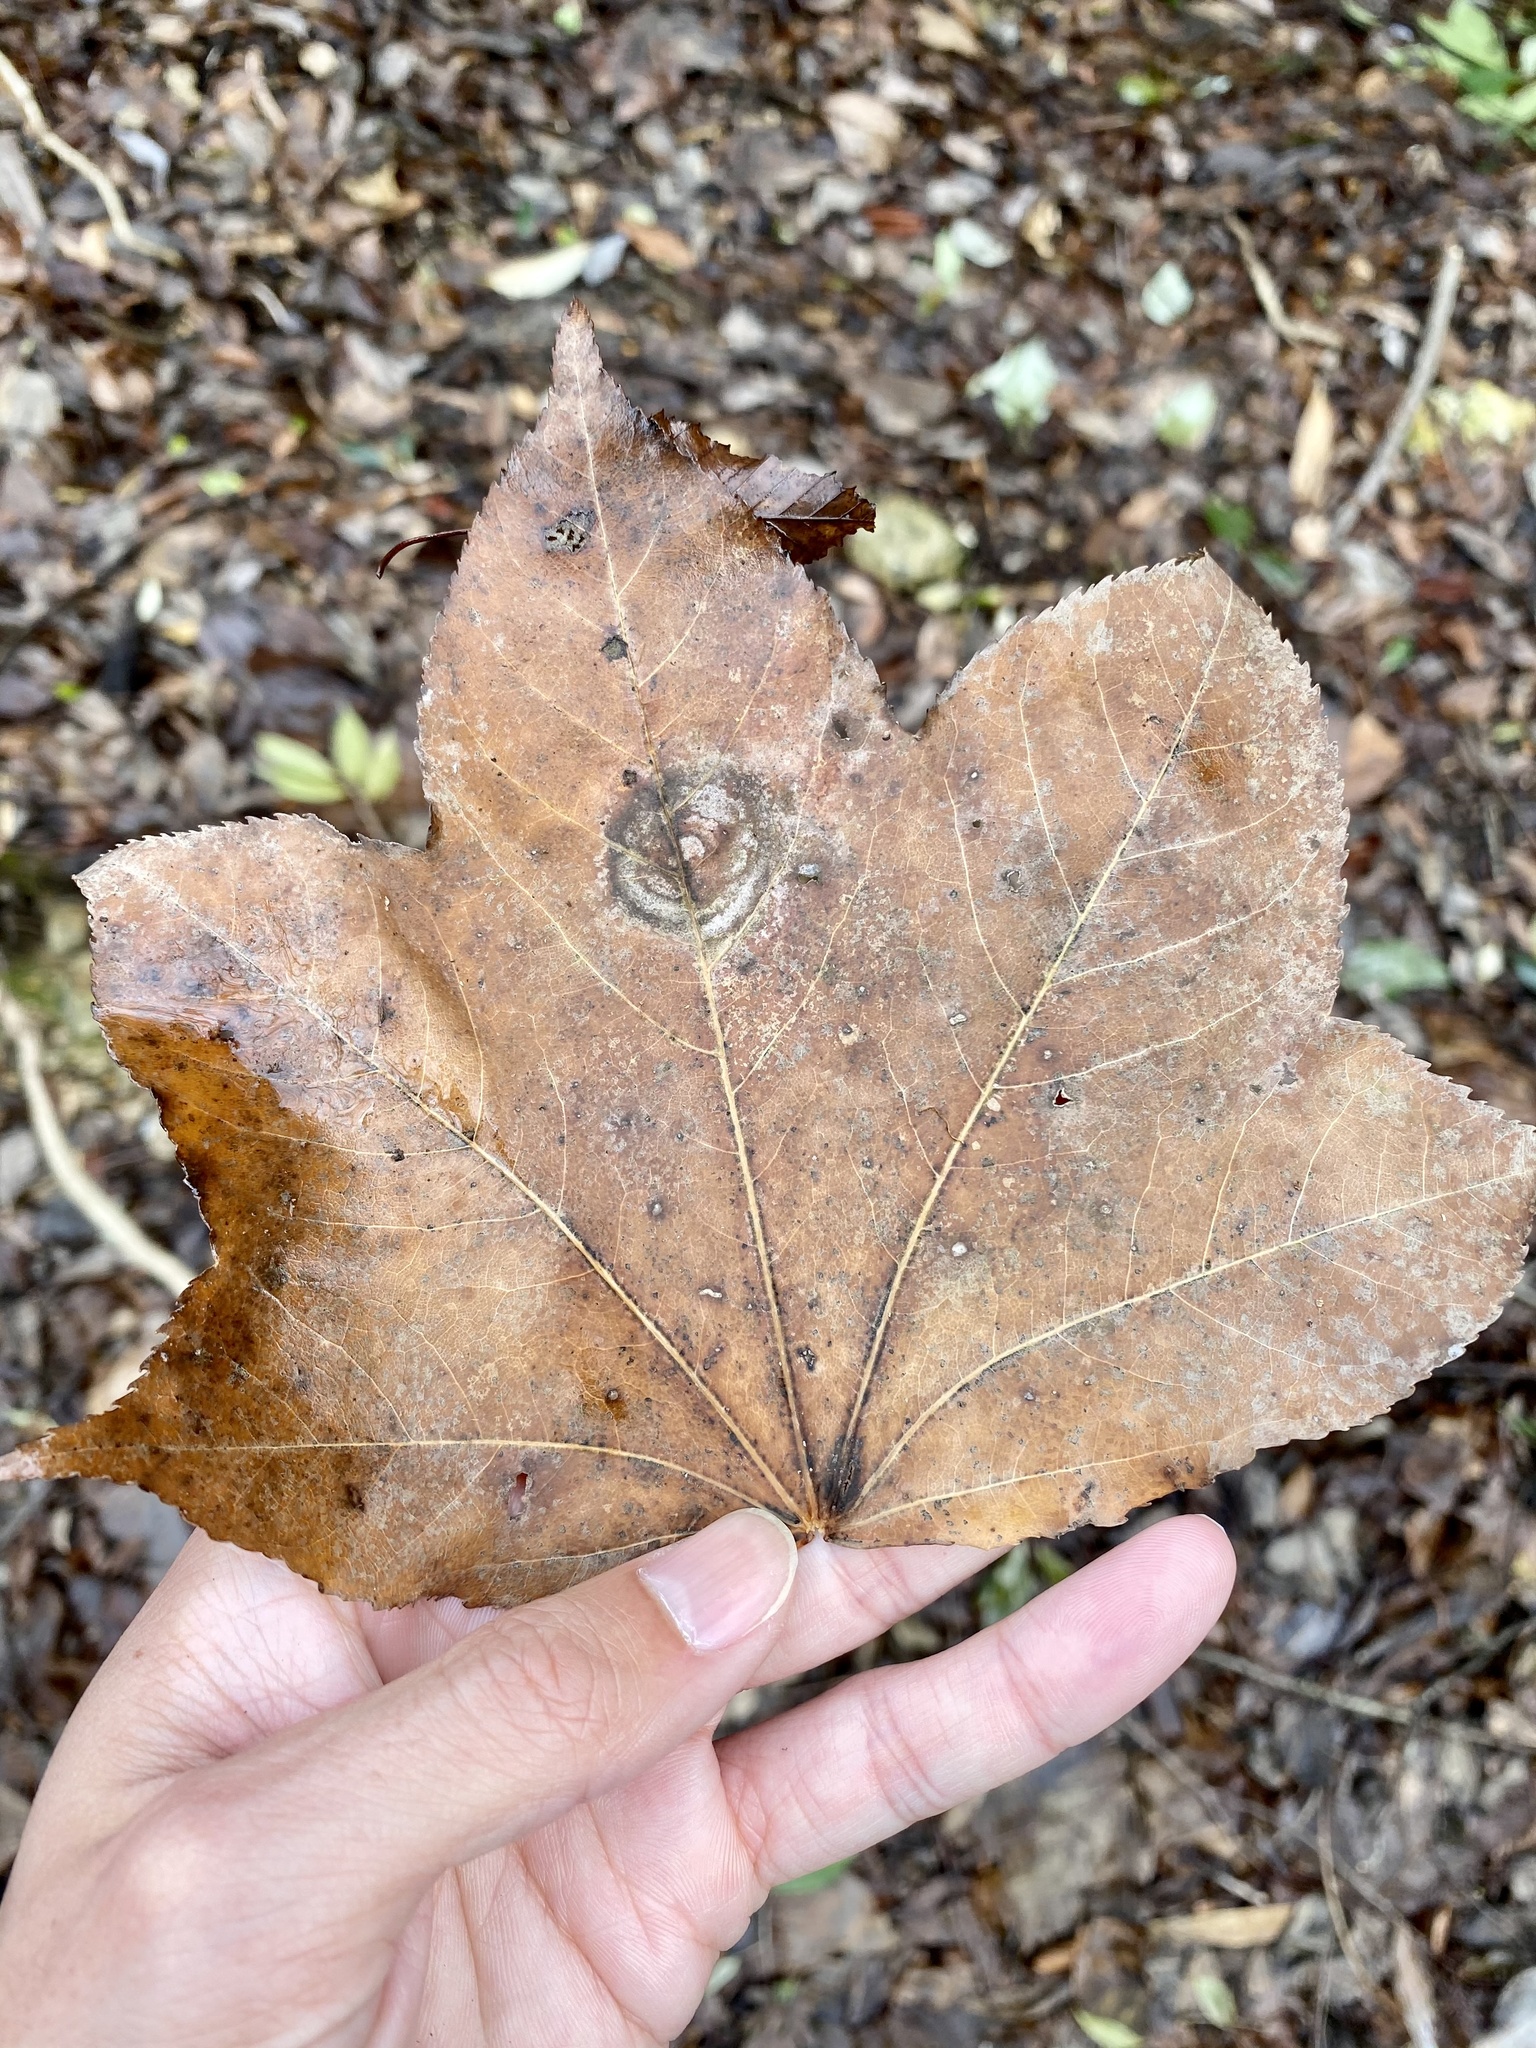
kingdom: Plantae
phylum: Tracheophyta
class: Magnoliopsida
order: Apiales
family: Araliaceae
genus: Kalopanax
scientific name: Kalopanax septemlobus
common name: Castor aralia
